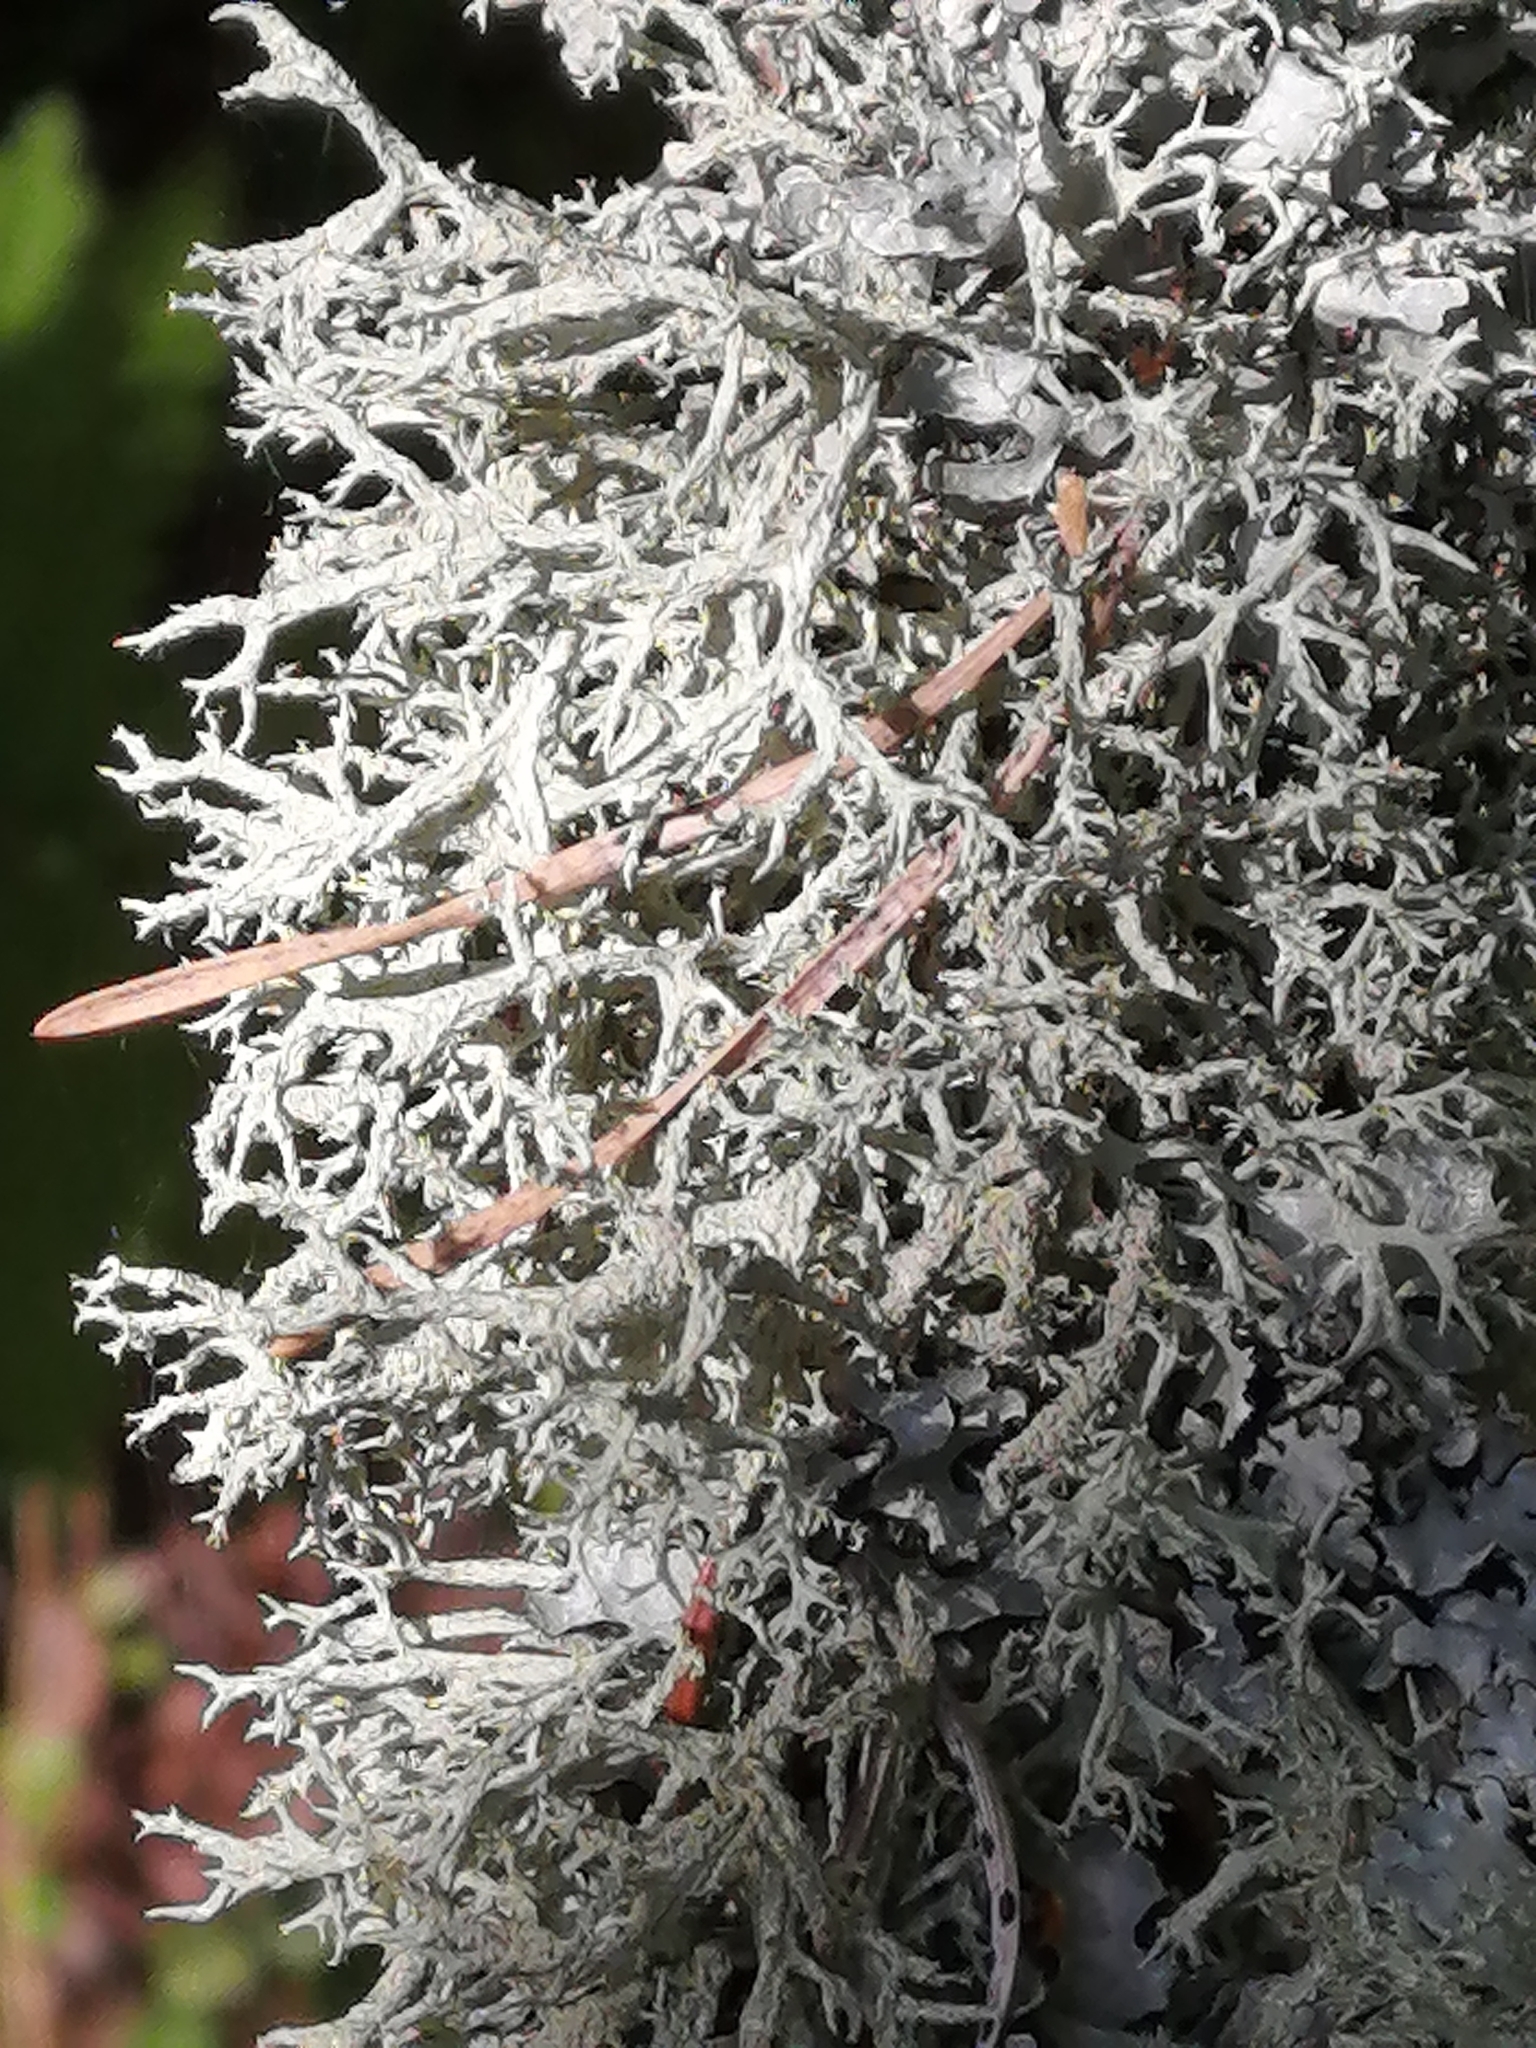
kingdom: Fungi
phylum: Ascomycota
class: Lecanoromycetes
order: Lecanorales
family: Parmeliaceae
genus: Evernia
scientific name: Evernia mesomorpha
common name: Boreal oak moss lichen
